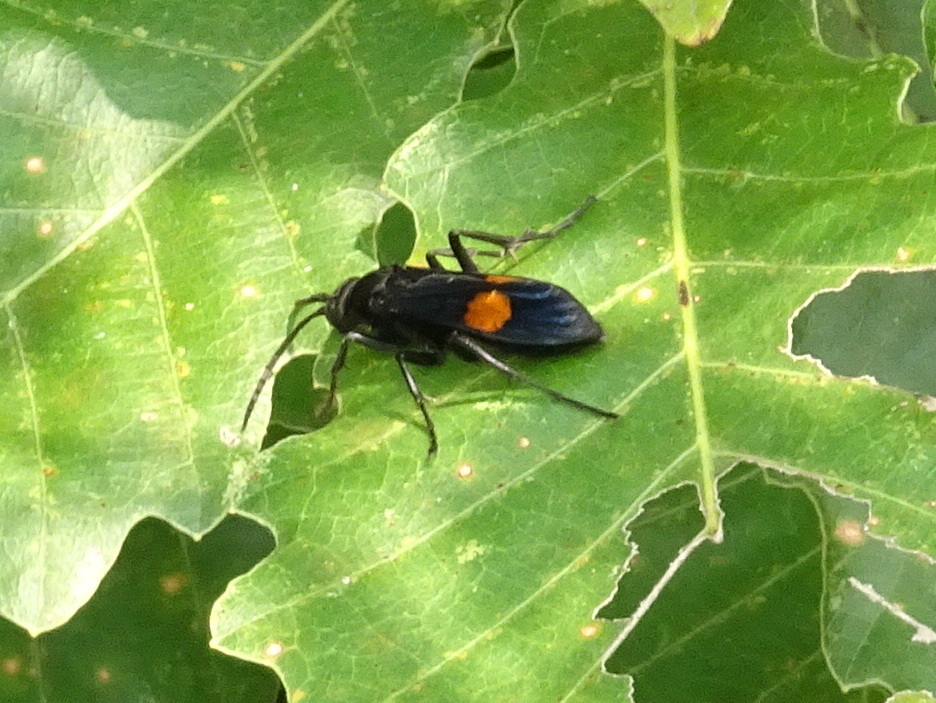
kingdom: Animalia
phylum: Arthropoda
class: Insecta
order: Hymenoptera
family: Pompilidae
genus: Chirodamus
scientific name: Chirodamus maculipennis
